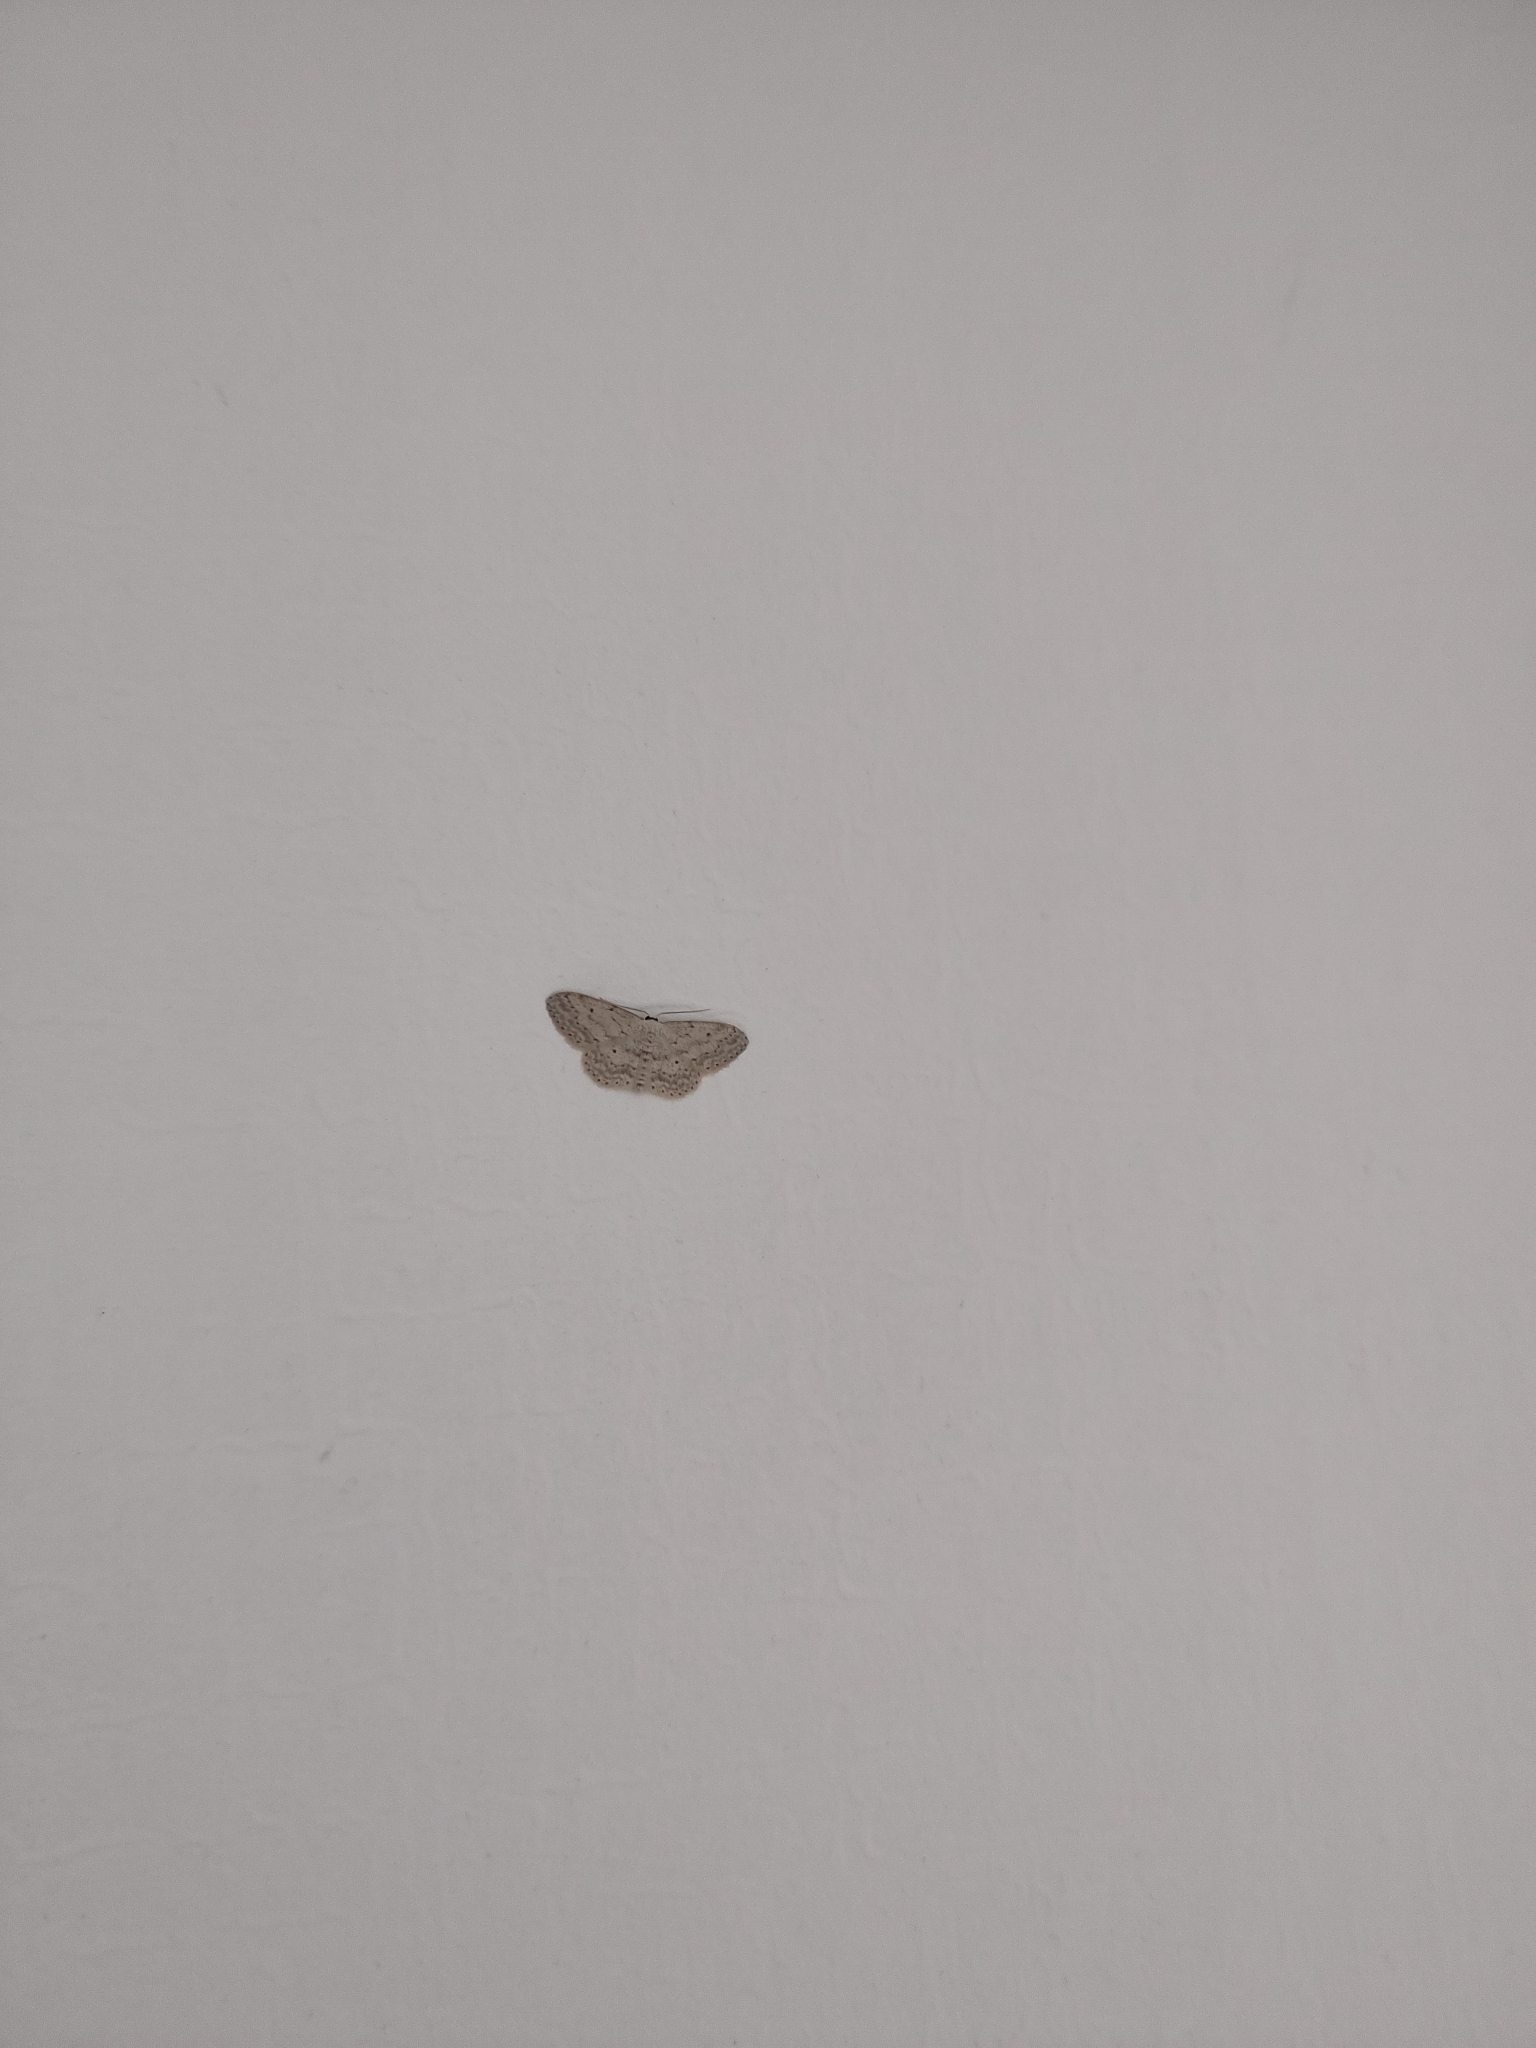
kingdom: Animalia
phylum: Arthropoda
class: Insecta
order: Lepidoptera
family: Geometridae
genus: Idaea
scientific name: Idaea seriata
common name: Small dusty wave
